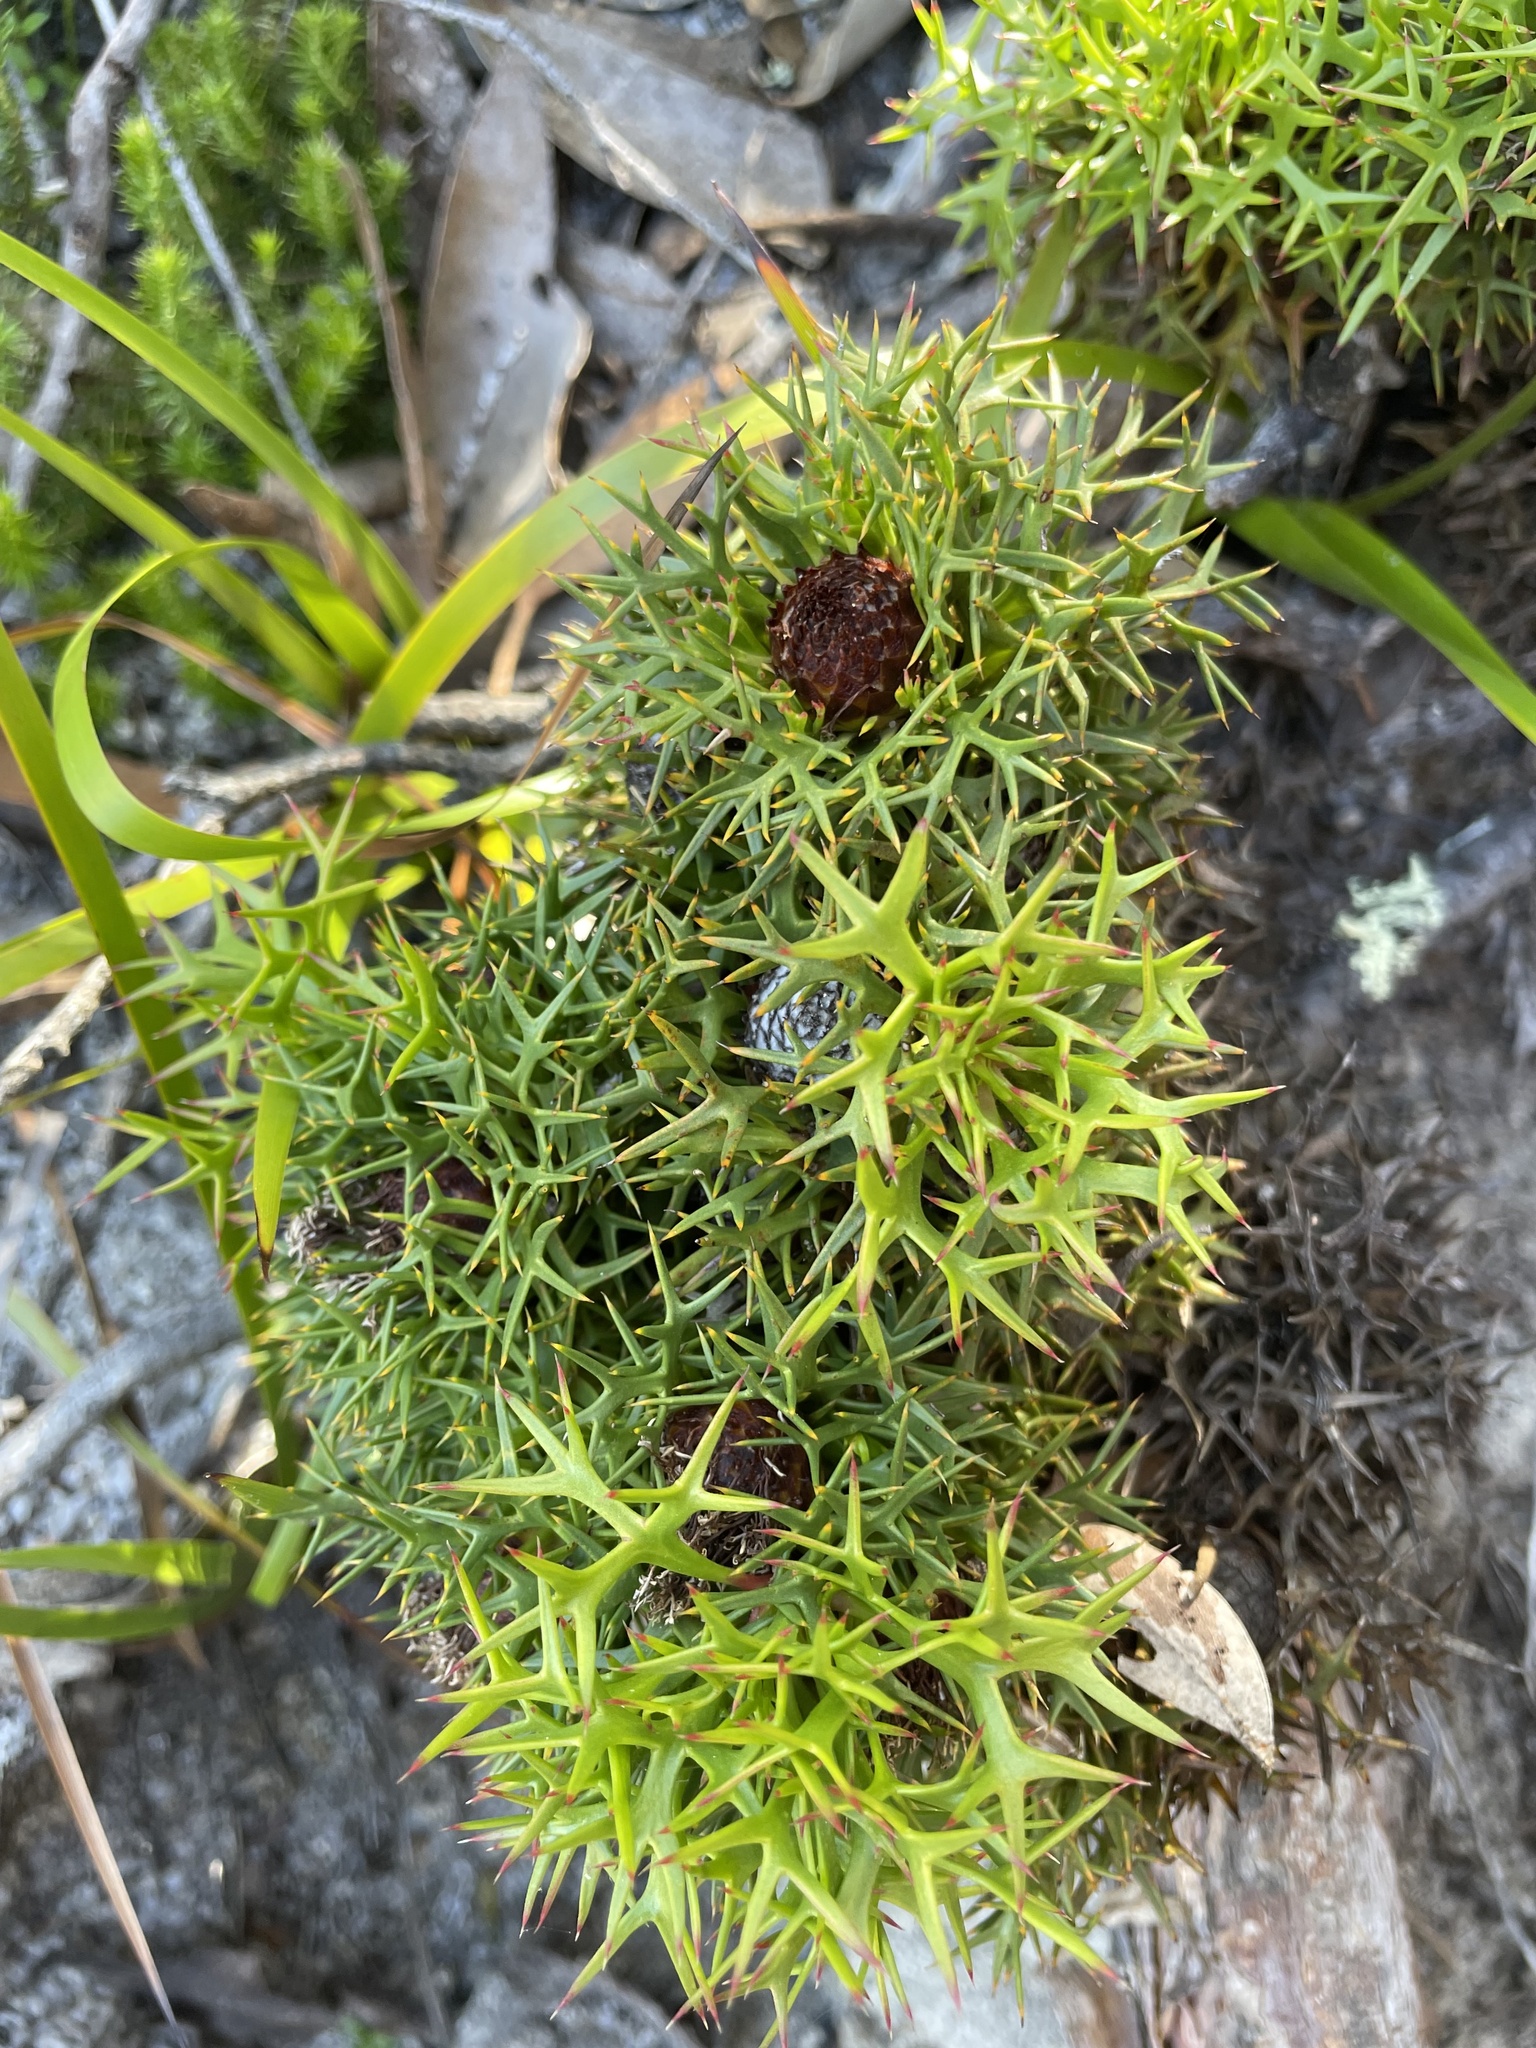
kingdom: Plantae
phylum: Tracheophyta
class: Magnoliopsida
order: Proteales
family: Proteaceae
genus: Isopogon
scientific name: Isopogon ceratophyllus
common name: Horny cone-bush
